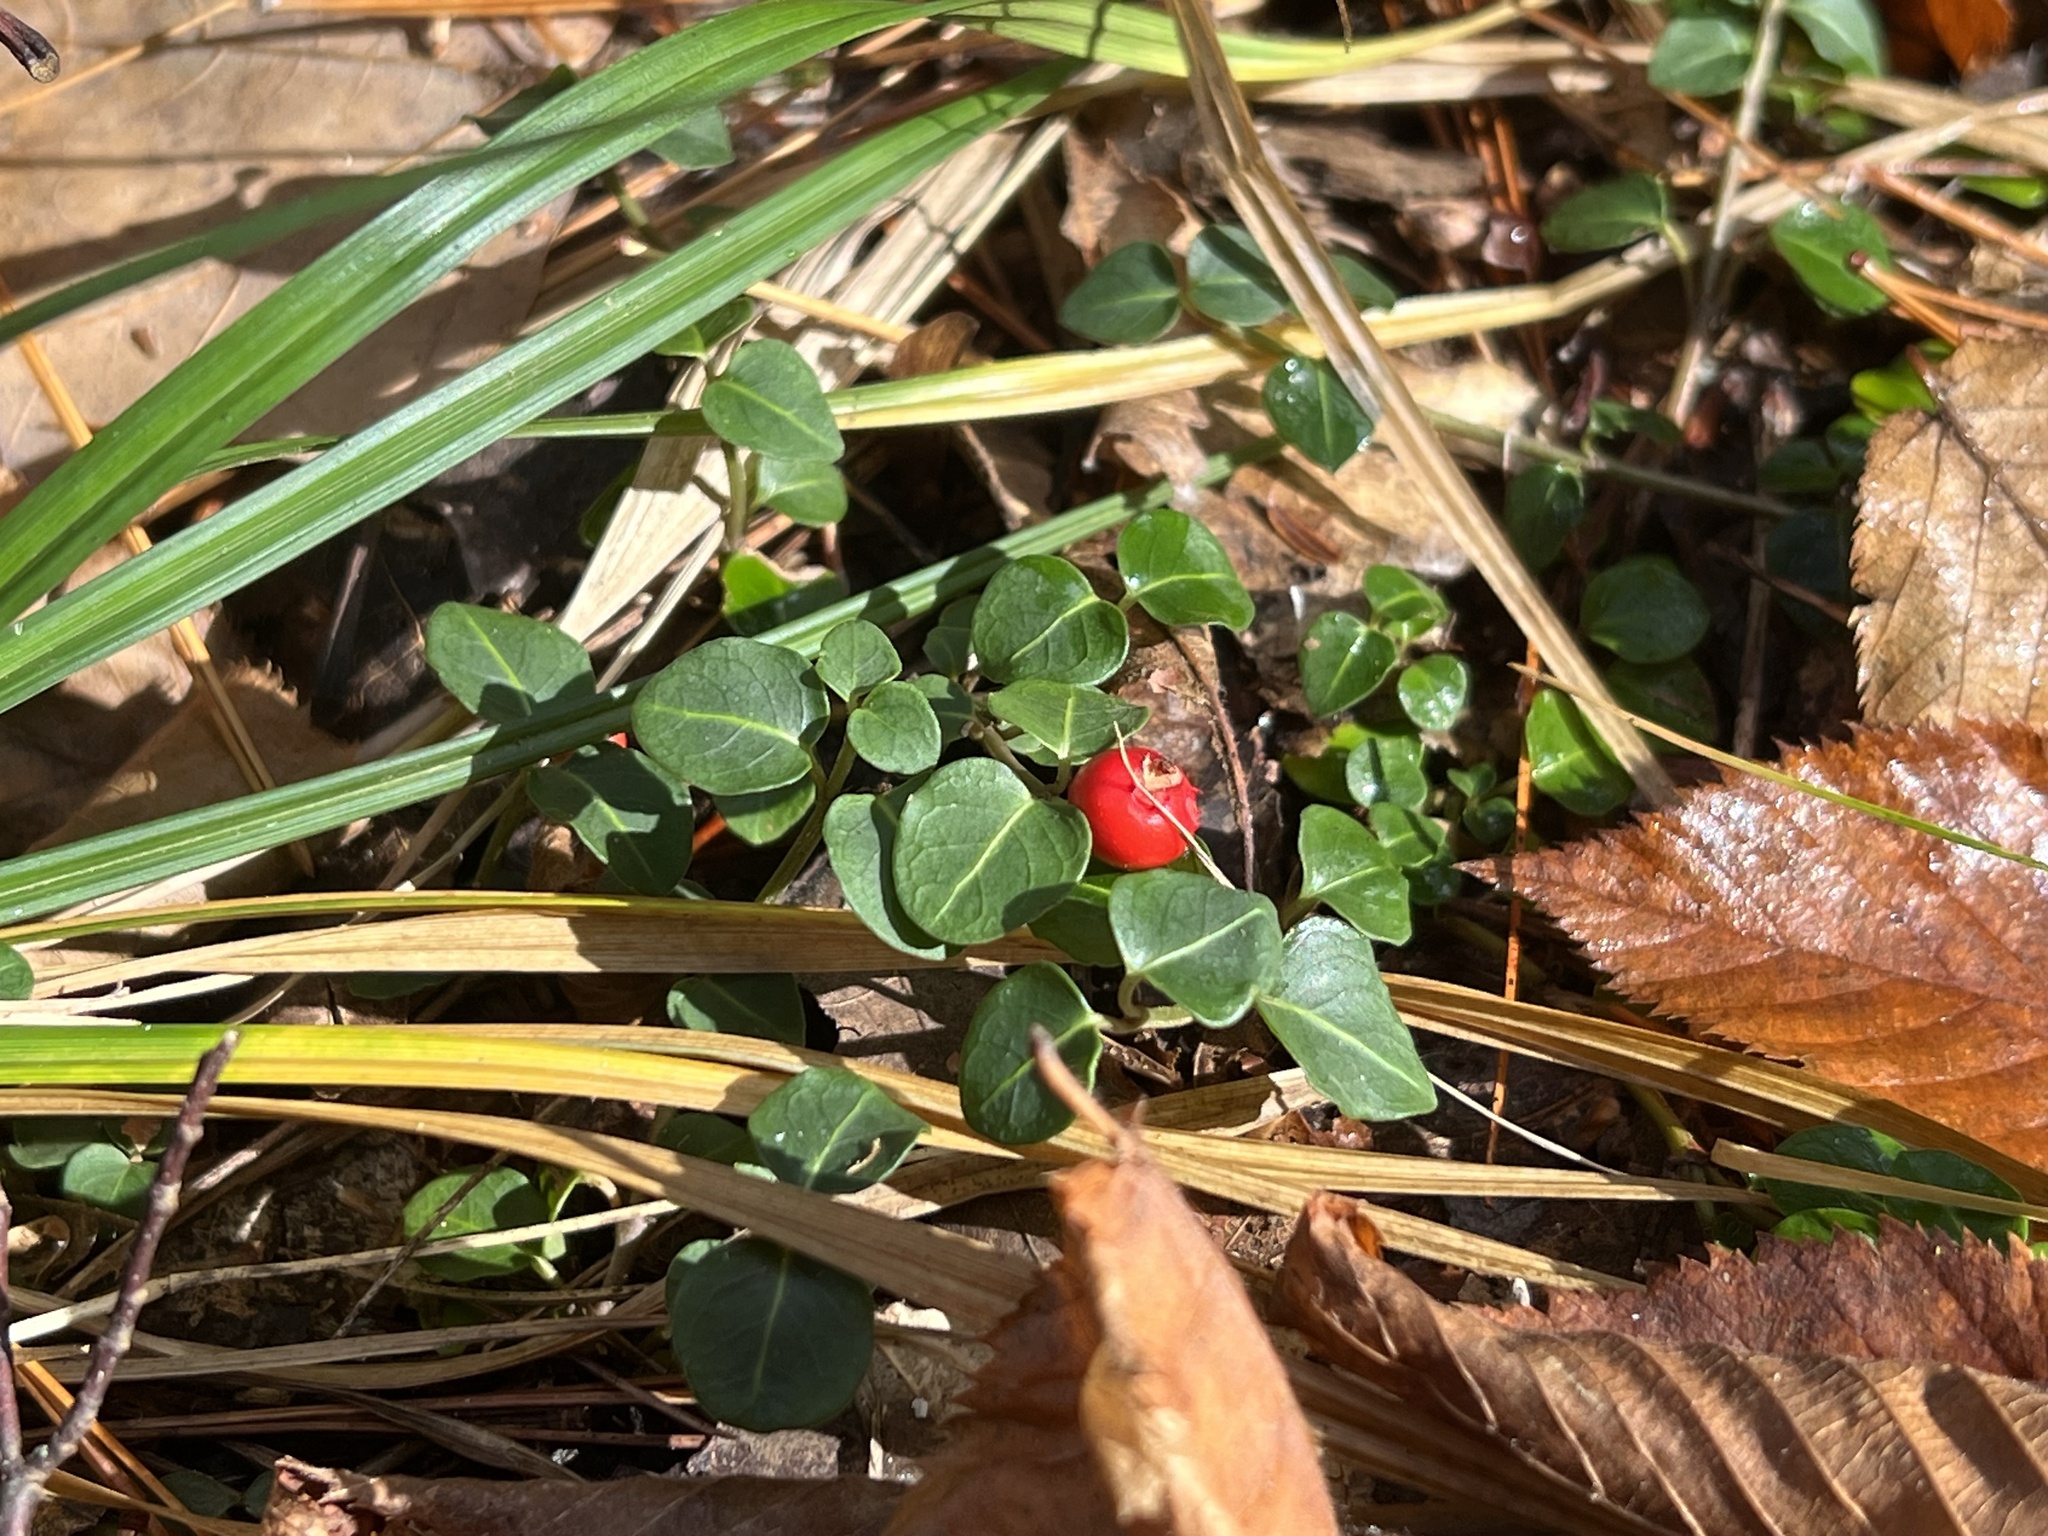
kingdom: Plantae
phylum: Tracheophyta
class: Magnoliopsida
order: Gentianales
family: Rubiaceae
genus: Mitchella
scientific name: Mitchella repens
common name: Partridge-berry
